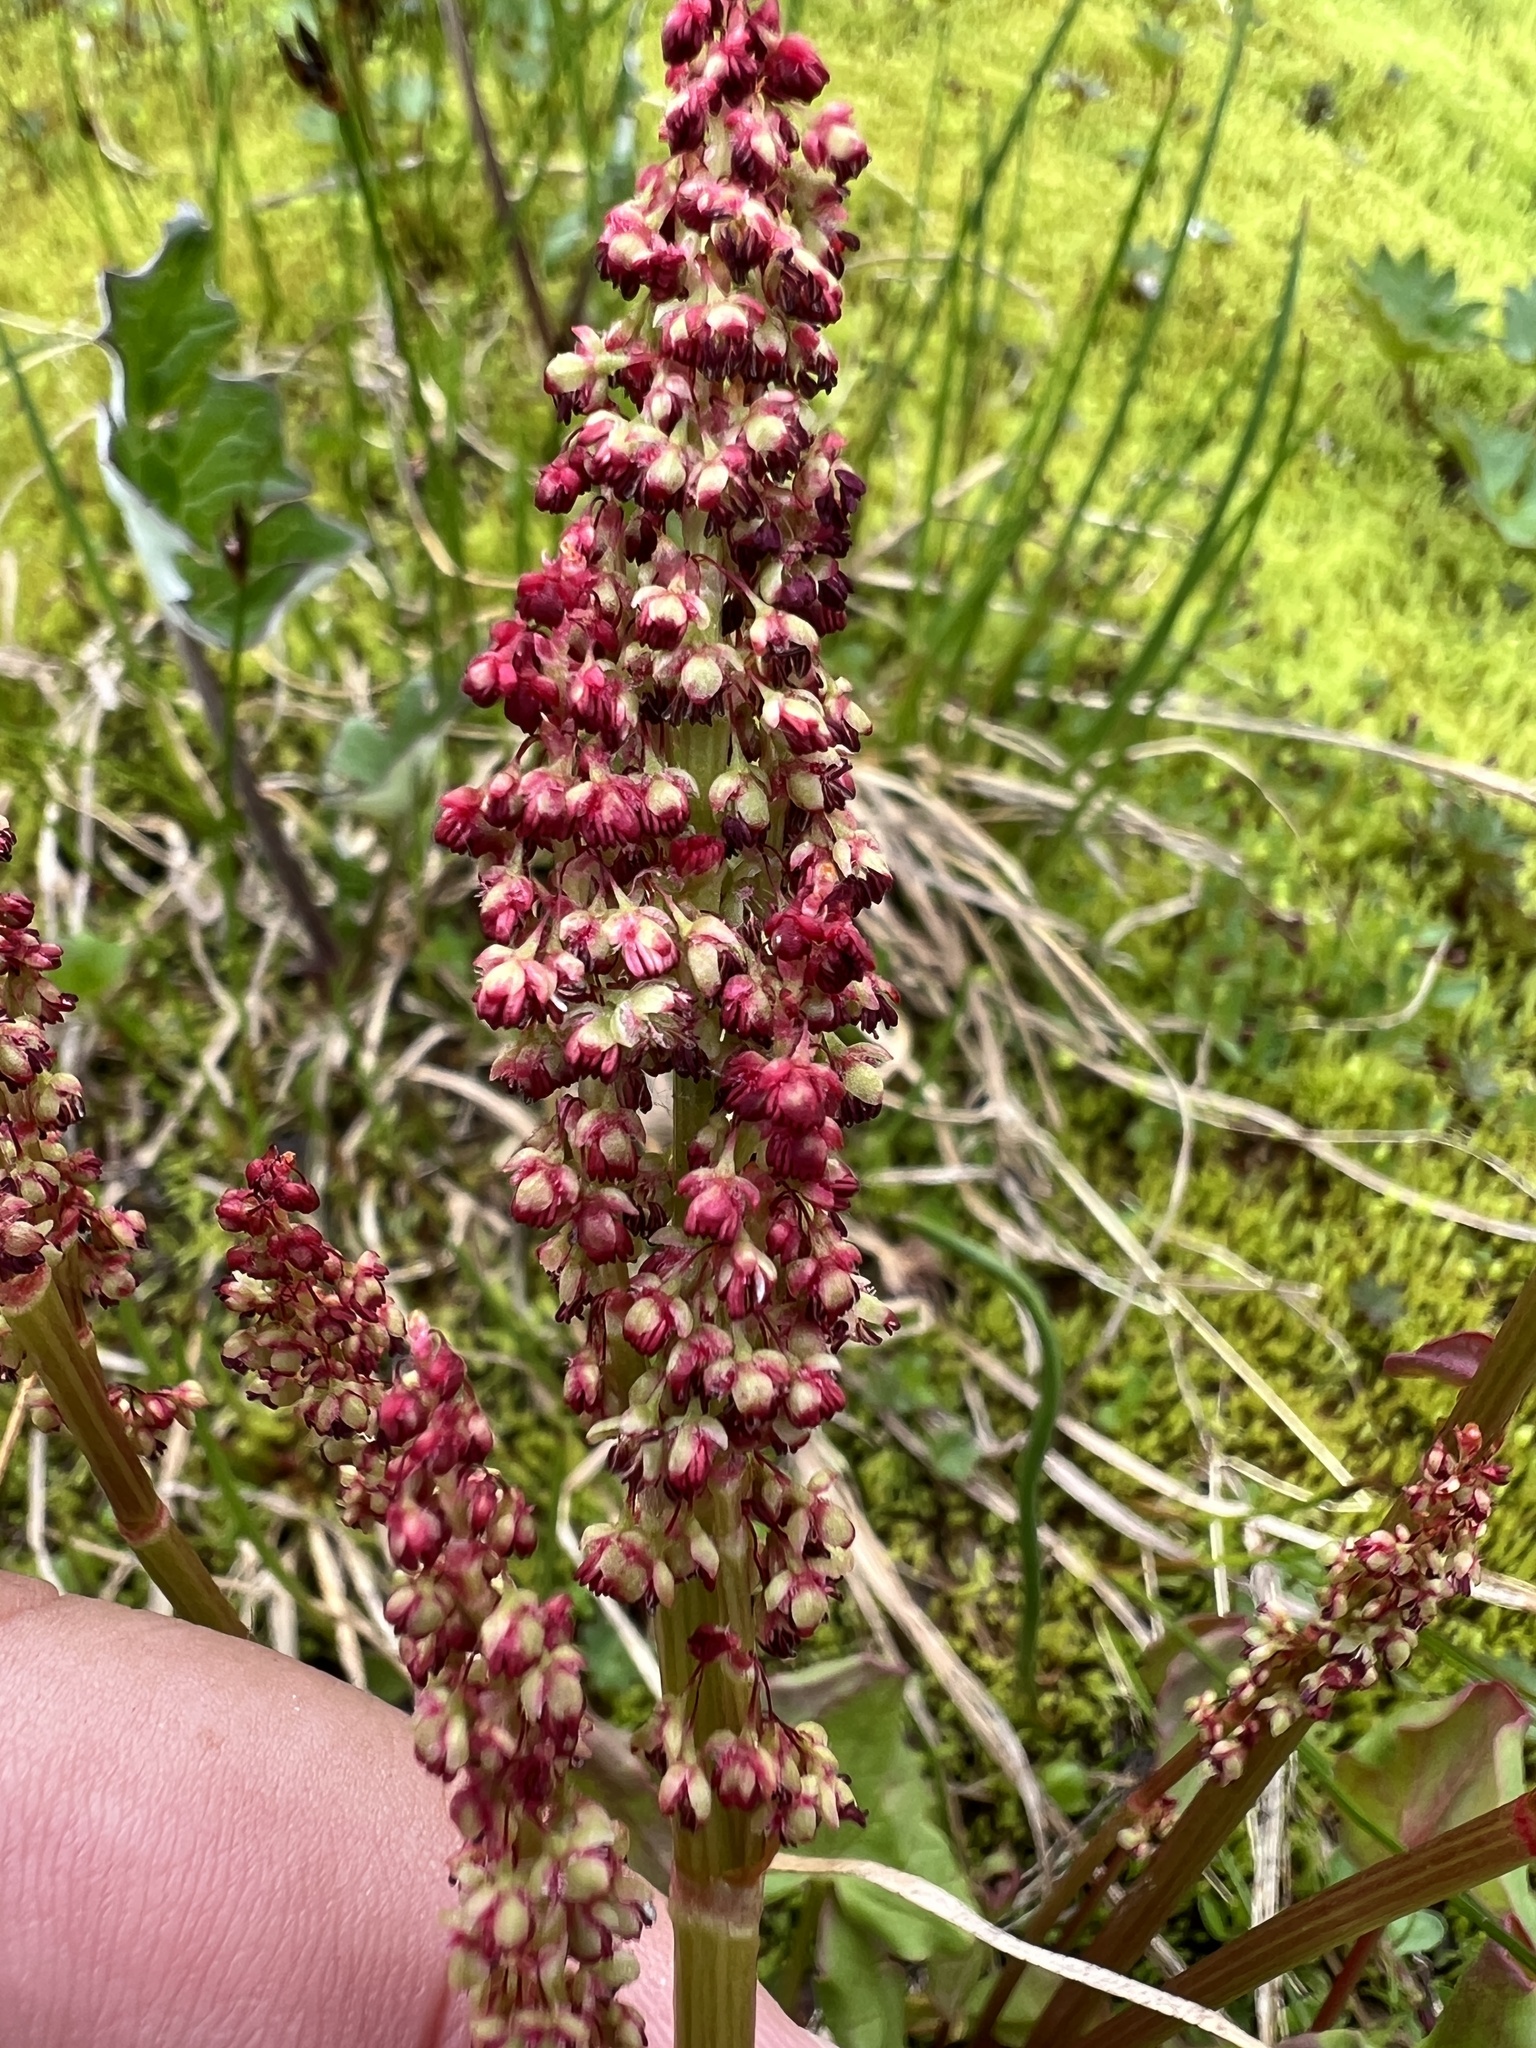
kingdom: Plantae
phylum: Tracheophyta
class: Magnoliopsida
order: Caryophyllales
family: Polygonaceae
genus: Oxyria
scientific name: Oxyria digyna
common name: Alpine mountain-sorrel
